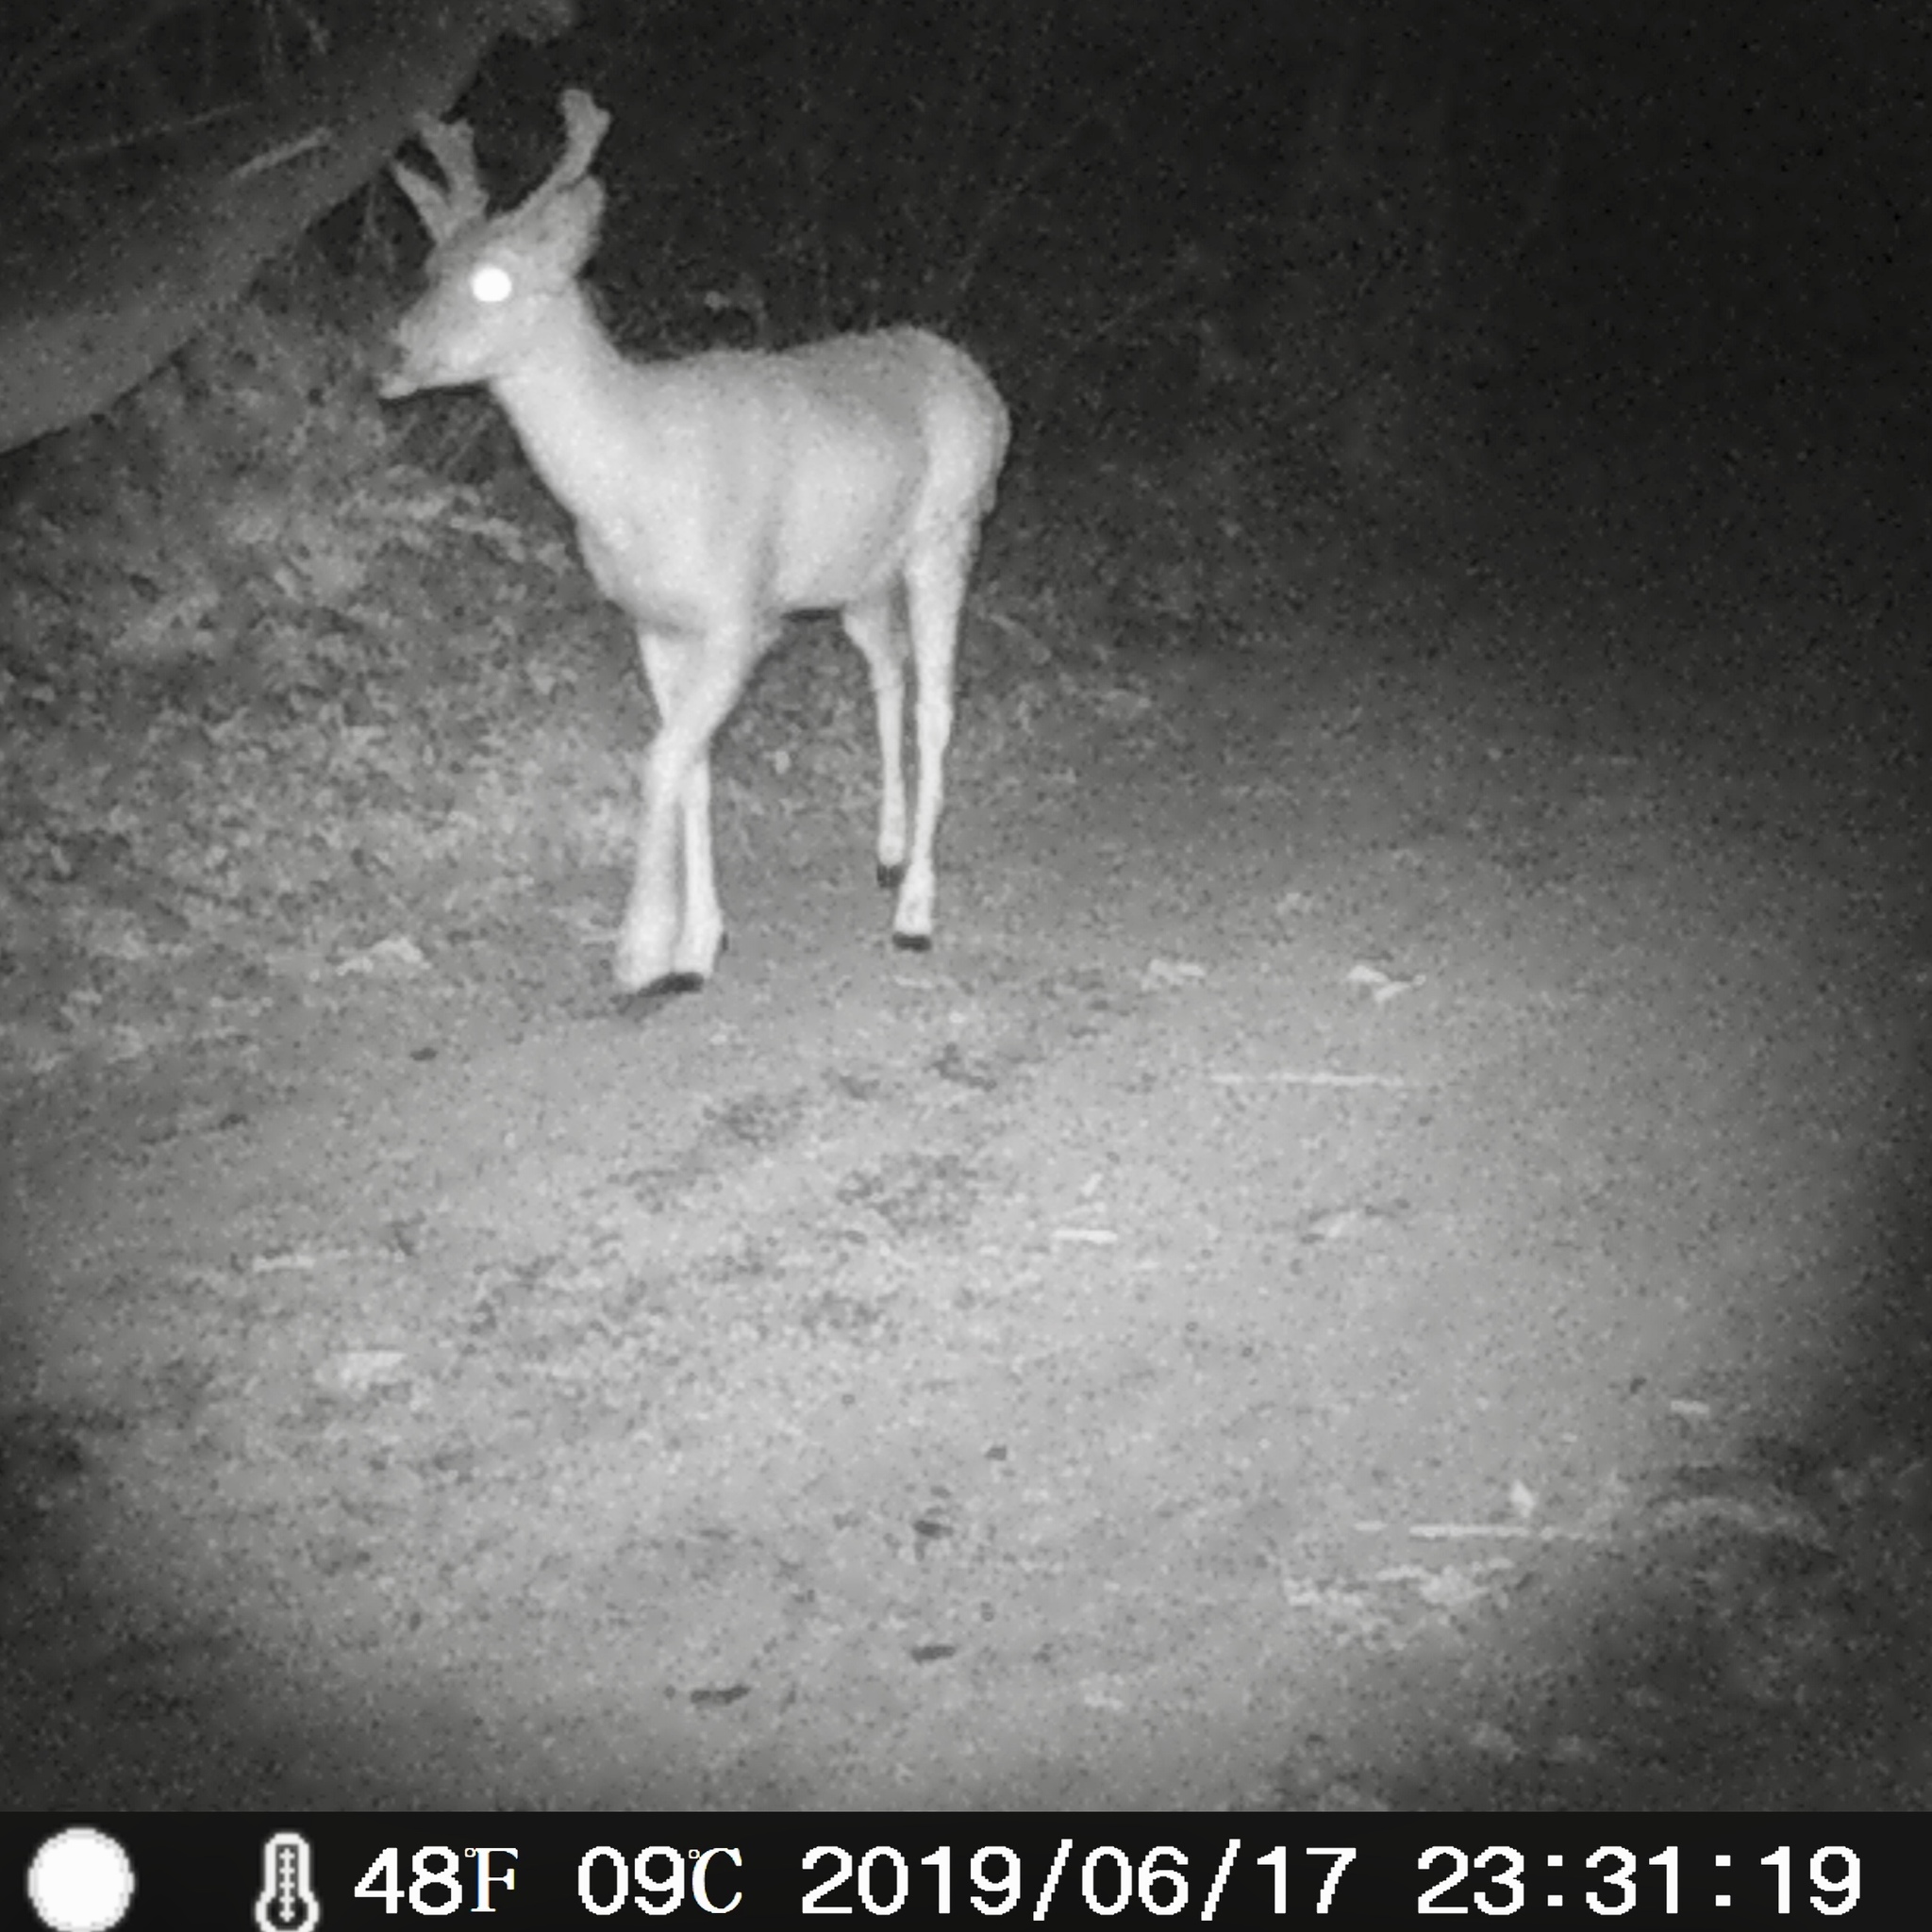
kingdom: Animalia
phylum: Chordata
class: Mammalia
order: Artiodactyla
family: Cervidae
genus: Odocoileus
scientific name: Odocoileus hemionus
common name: Mule deer
